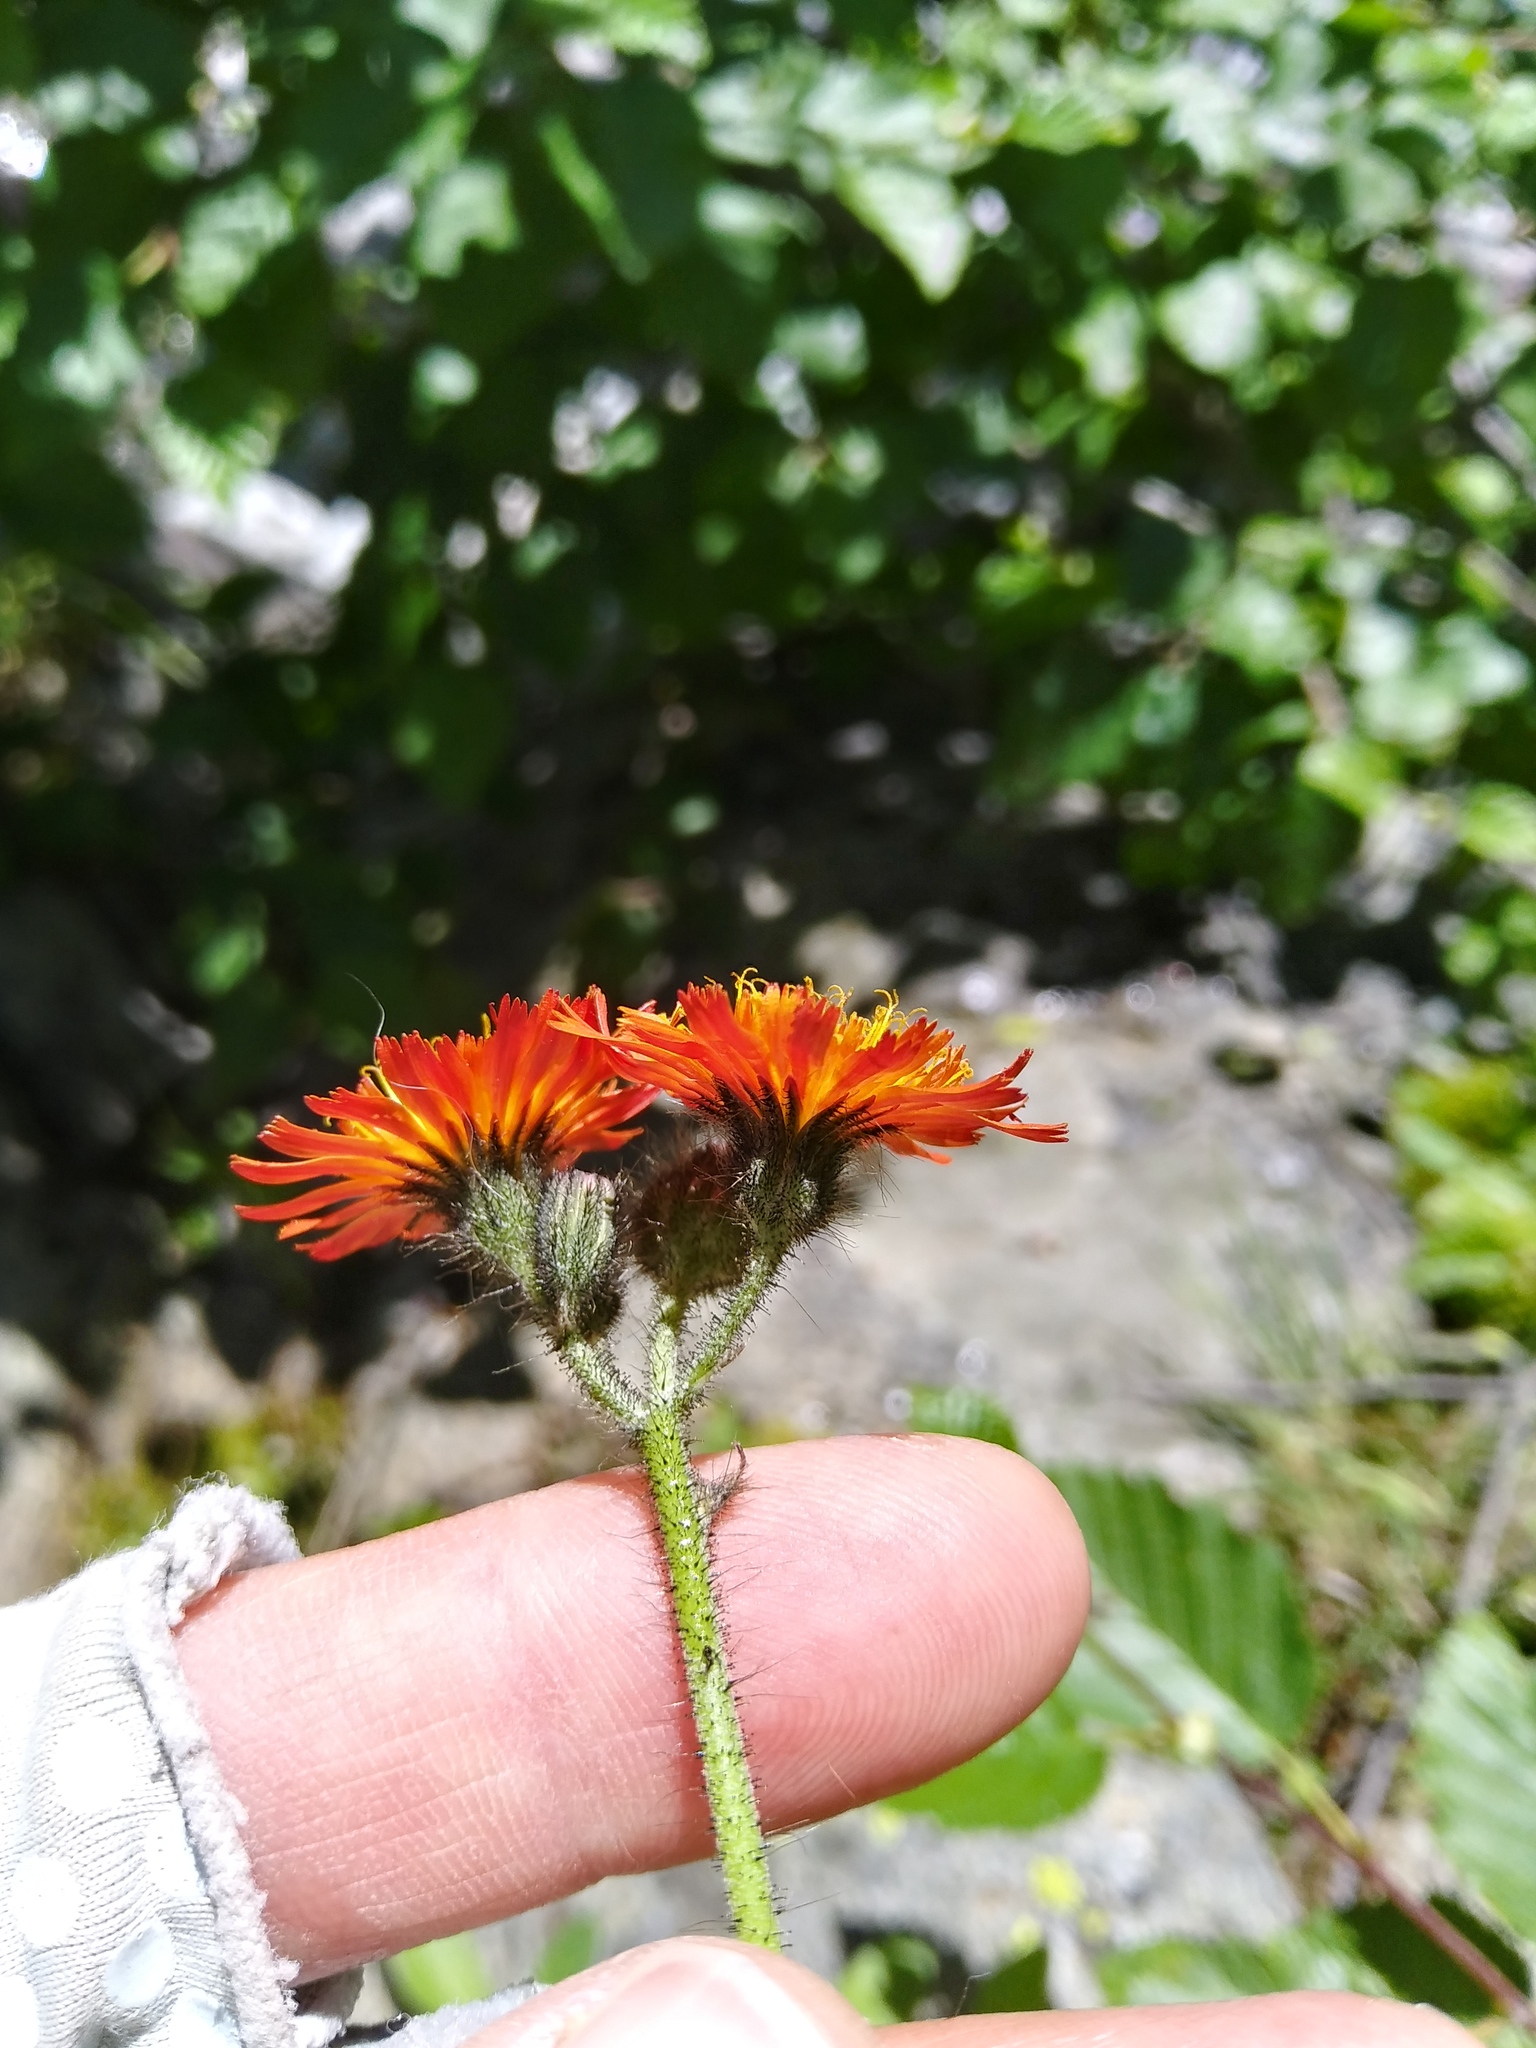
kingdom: Plantae
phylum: Tracheophyta
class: Magnoliopsida
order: Asterales
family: Asteraceae
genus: Pilosella
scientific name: Pilosella aurantiaca
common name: Fox-and-cubs
